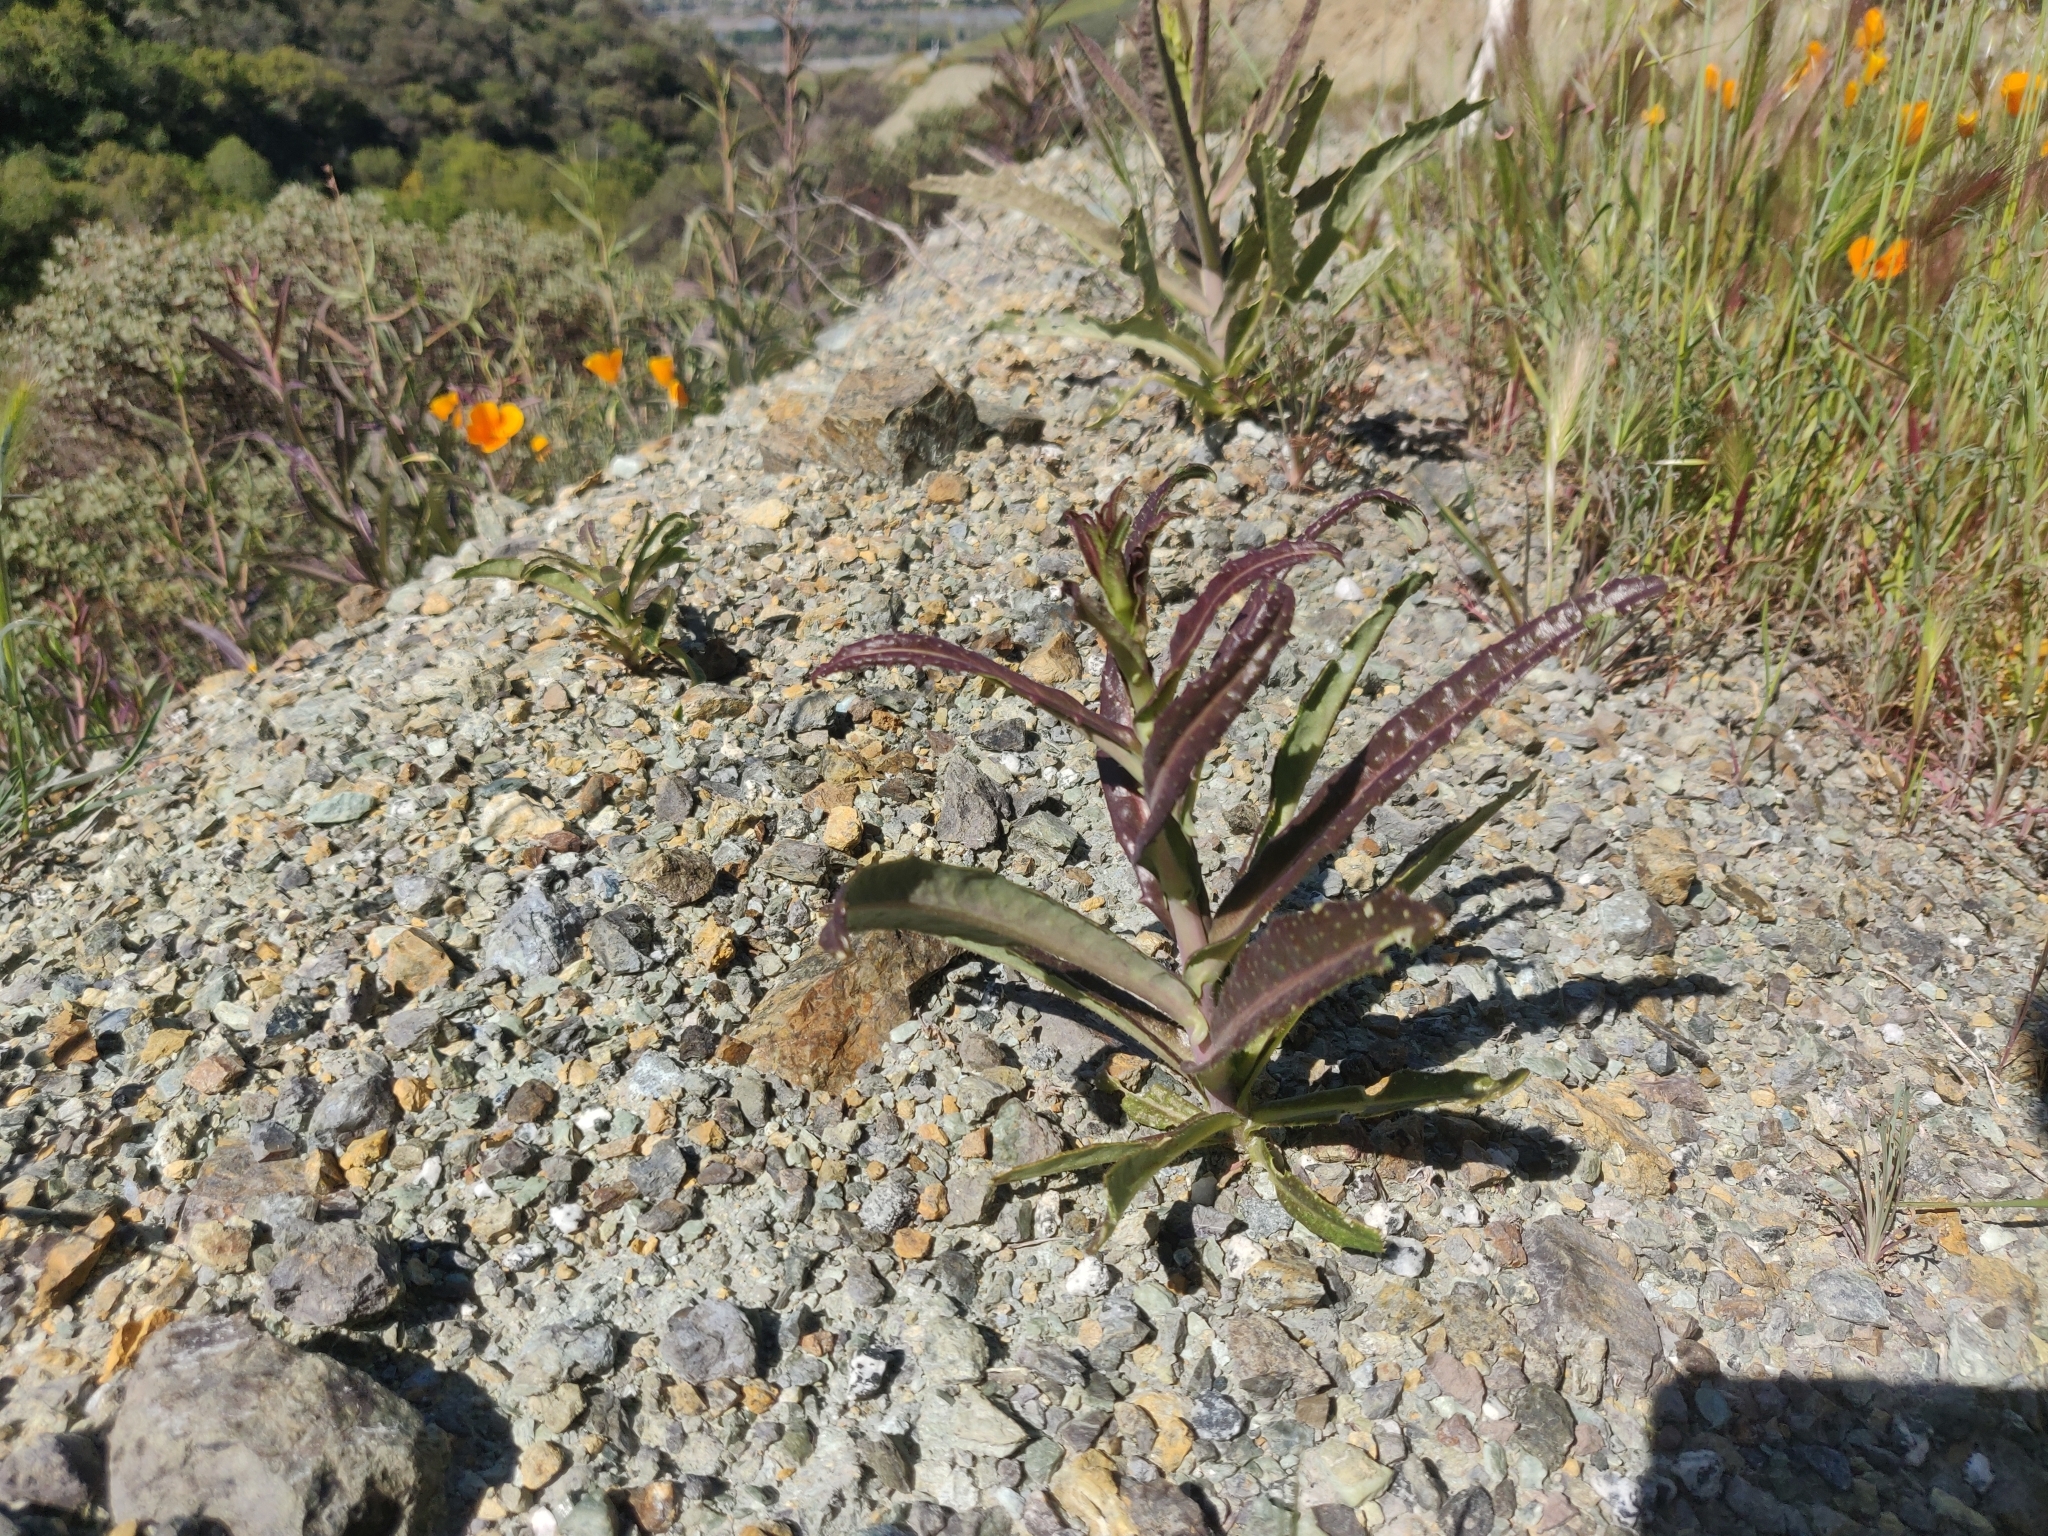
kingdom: Plantae
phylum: Tracheophyta
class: Magnoliopsida
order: Brassicales
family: Brassicaceae
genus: Streptanthus
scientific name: Streptanthus glandulosus
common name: Jewel-flower
